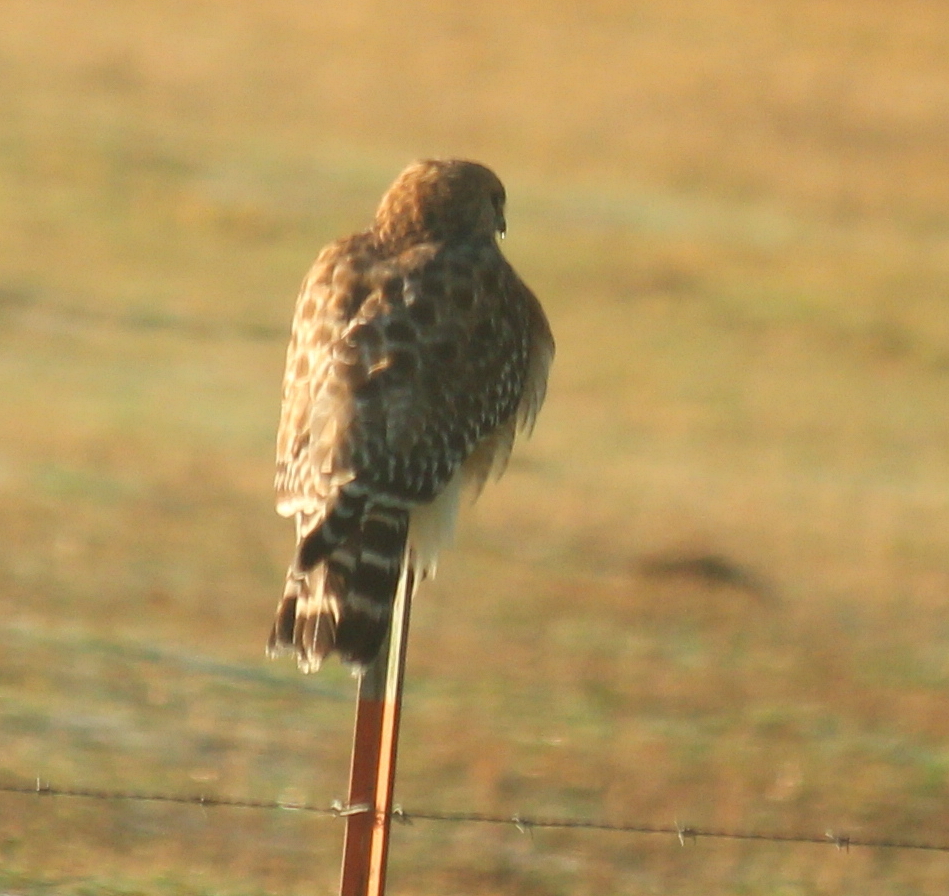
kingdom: Animalia
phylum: Chordata
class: Aves
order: Accipitriformes
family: Accipitridae
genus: Buteo
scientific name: Buteo lineatus
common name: Red-shouldered hawk
